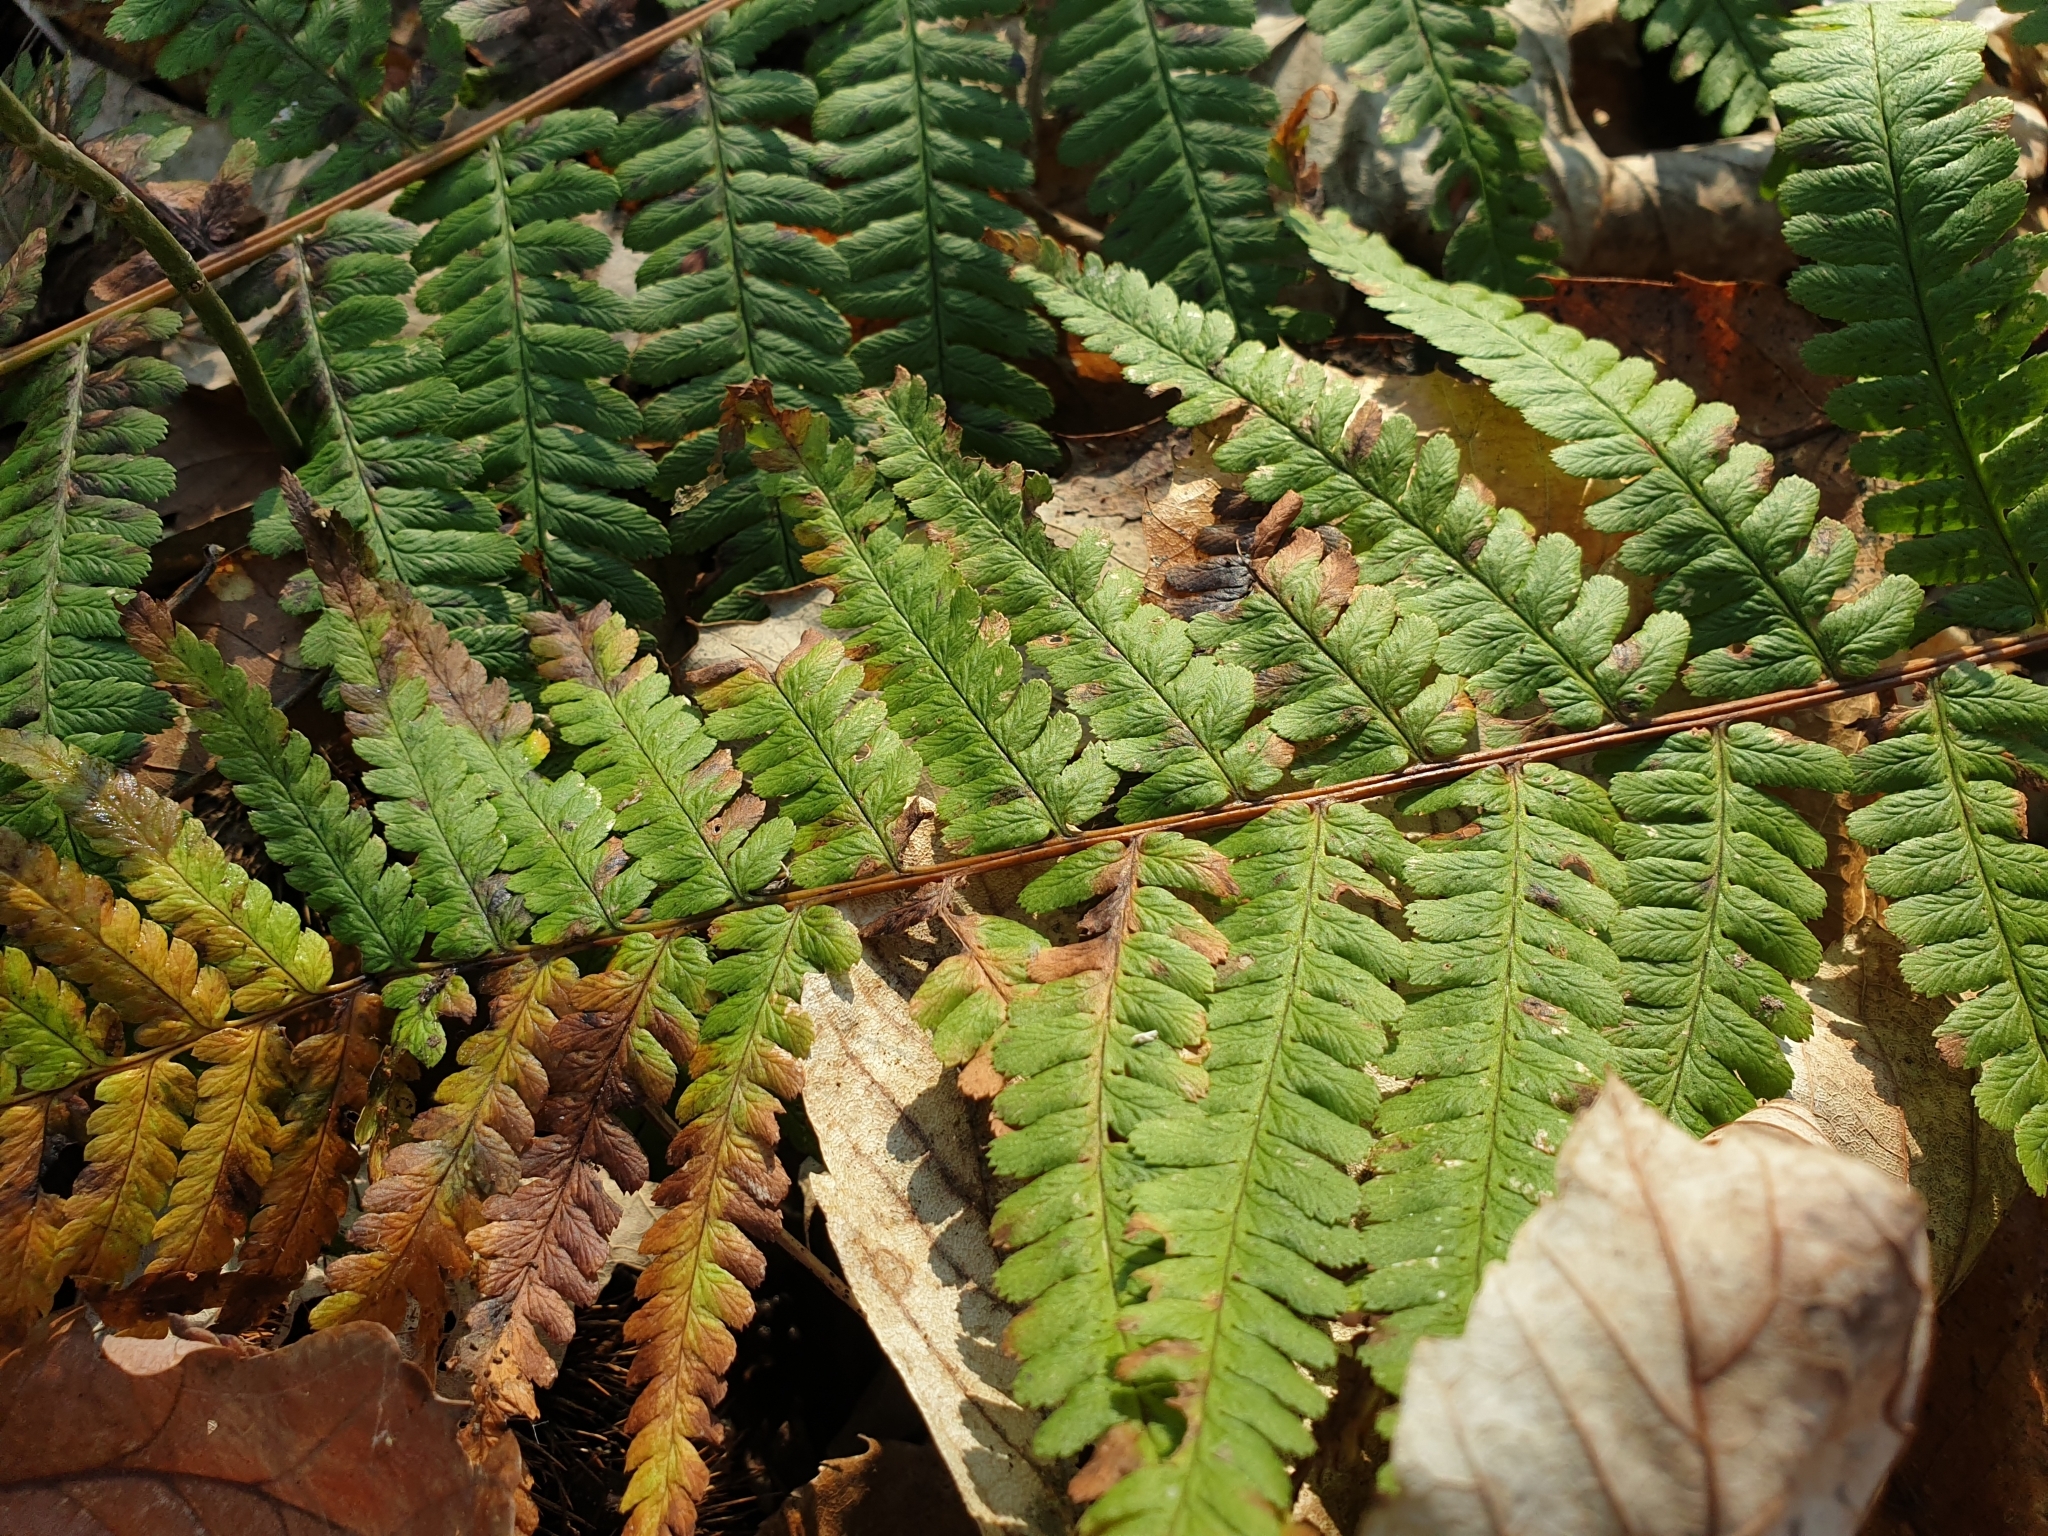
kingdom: Plantae
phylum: Tracheophyta
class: Polypodiopsida
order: Polypodiales
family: Dryopteridaceae
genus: Dryopteris
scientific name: Dryopteris filix-mas
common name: Male fern
